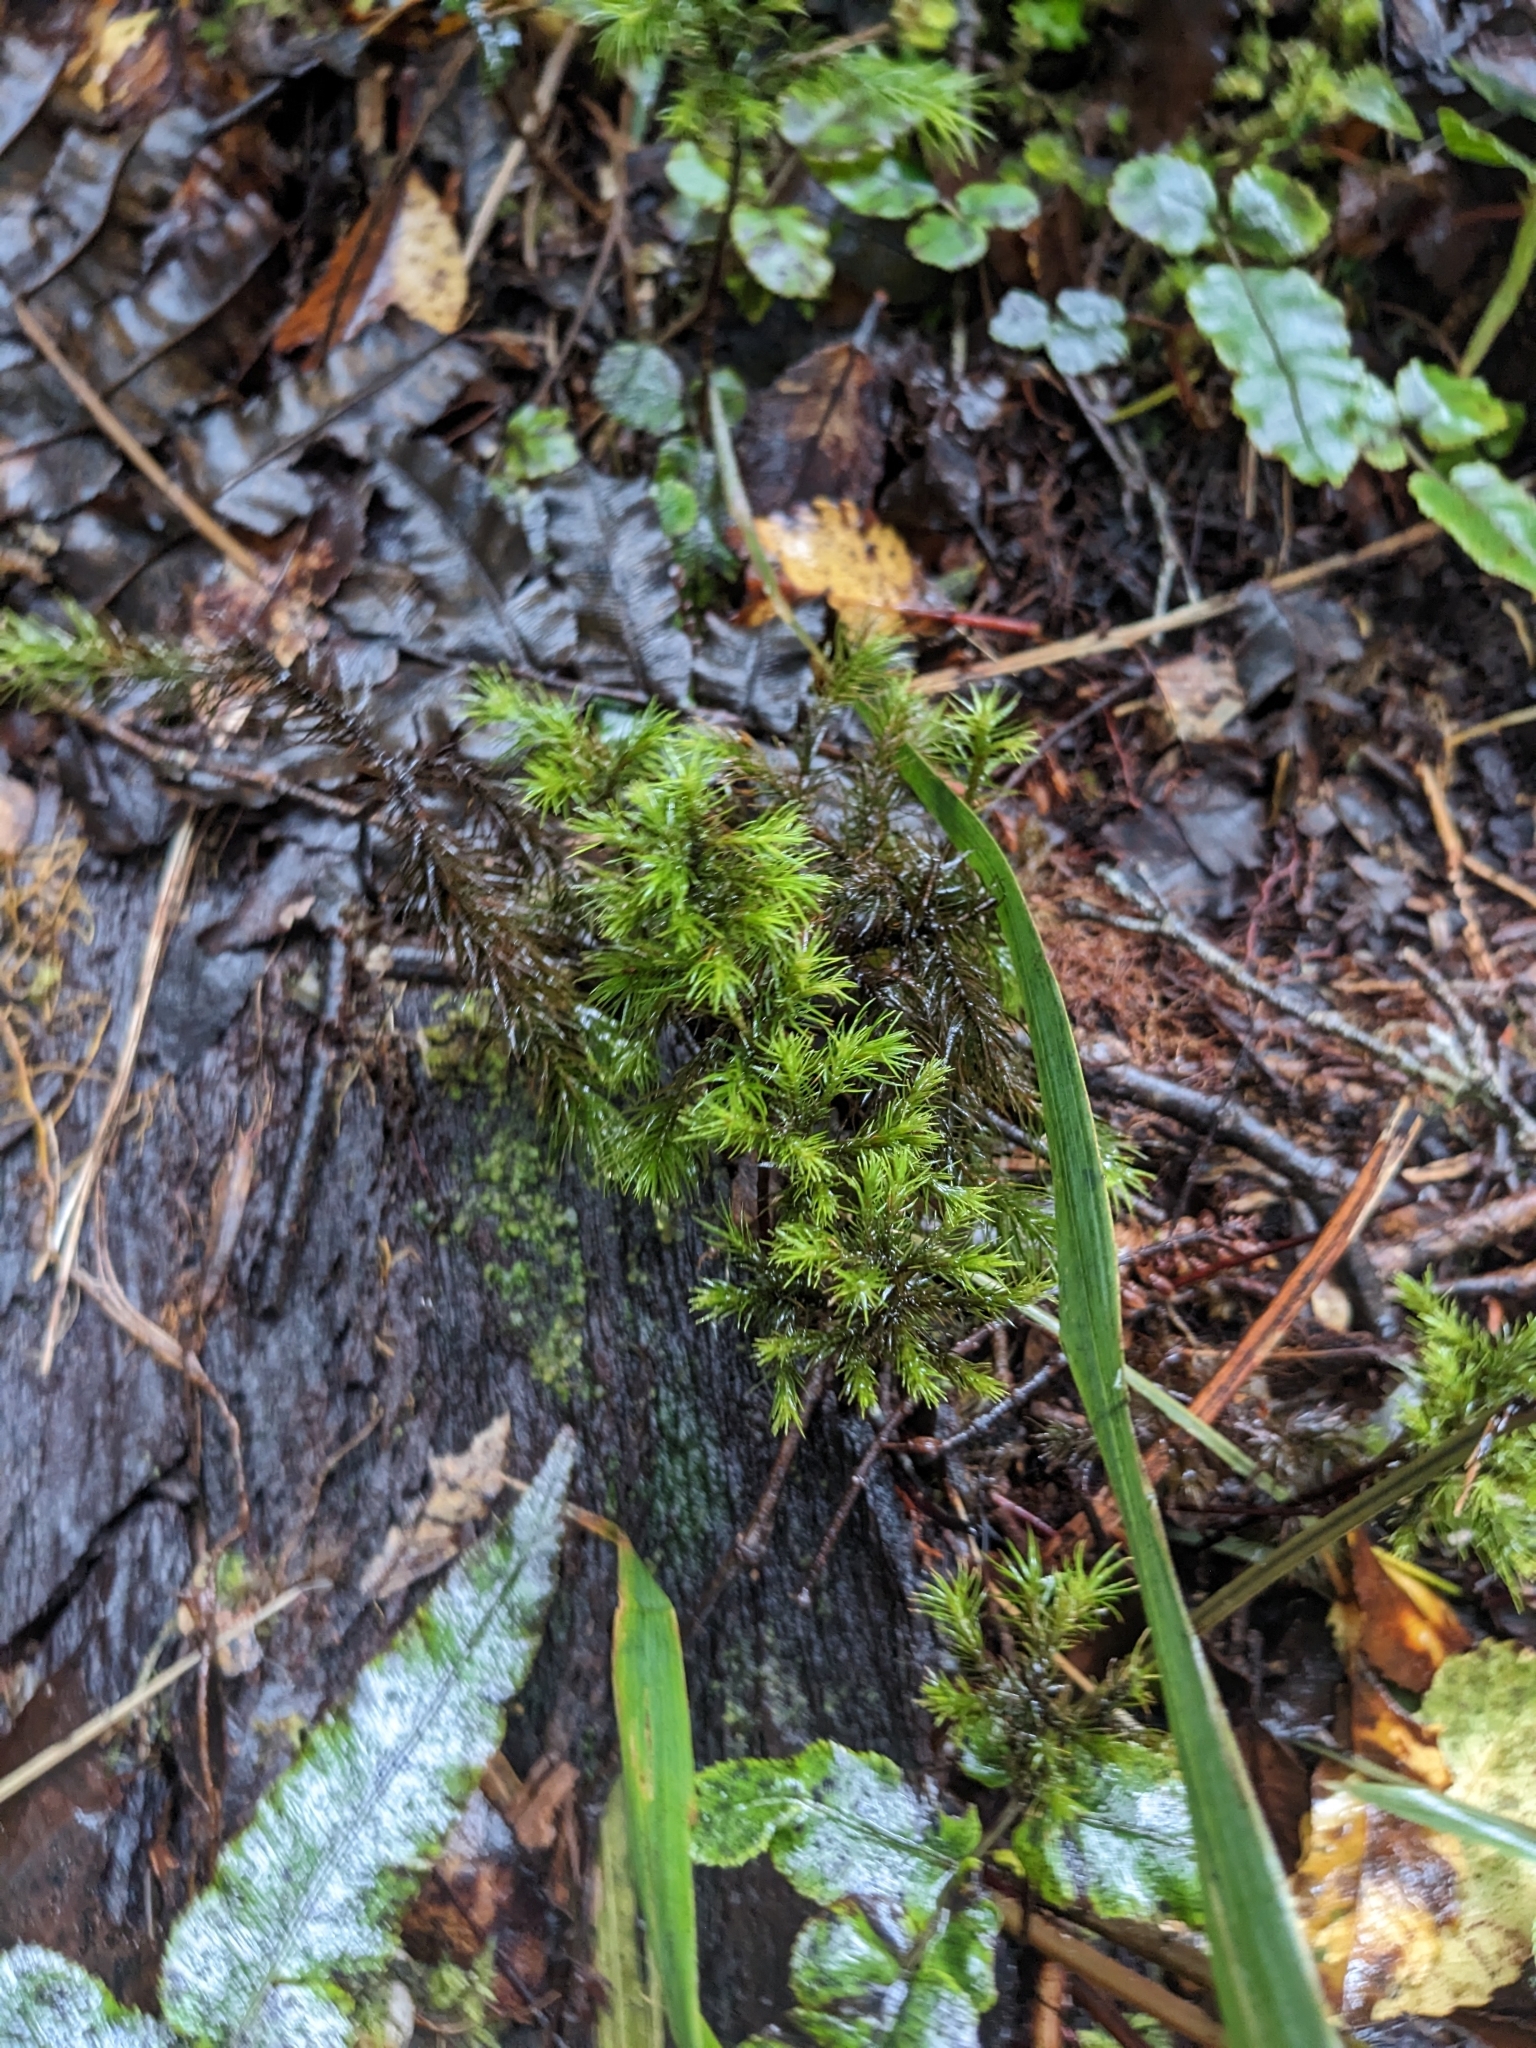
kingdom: Plantae
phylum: Bryophyta
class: Polytrichopsida
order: Polytrichales
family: Polytrichaceae
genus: Dendroligotrichum
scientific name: Dendroligotrichum tongariroense
